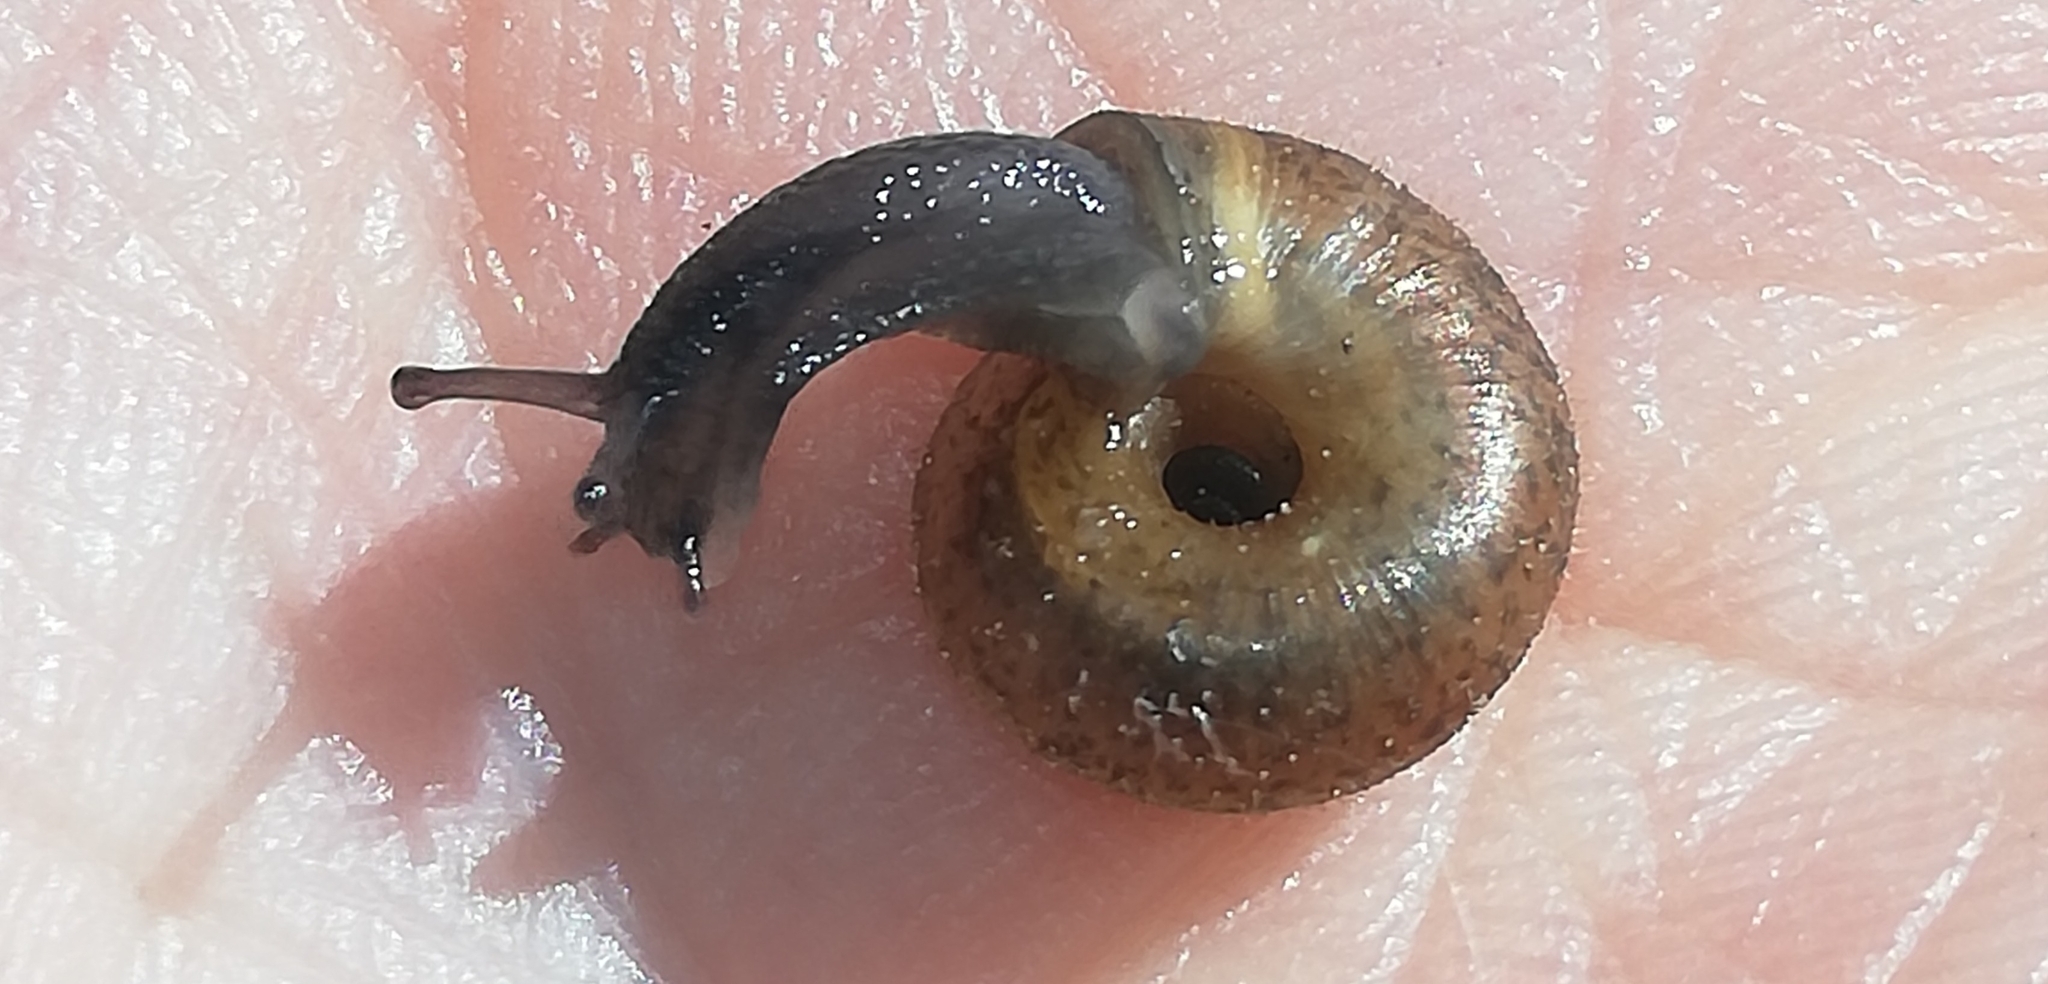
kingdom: Animalia
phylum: Mollusca
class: Gastropoda
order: Stylommatophora
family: Hygromiidae
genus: Trochulus
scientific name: Trochulus hispidus
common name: Hairy snail
